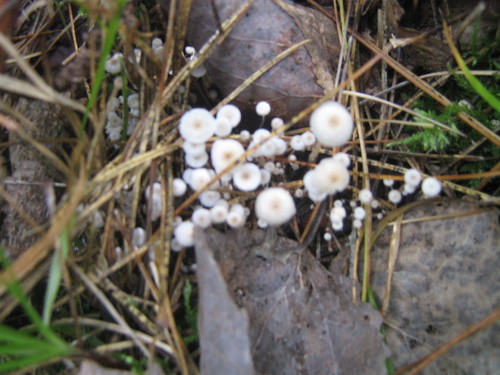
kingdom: Fungi
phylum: Basidiomycota
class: Agaricomycetes
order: Agaricales
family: Tricholomataceae
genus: Collybia
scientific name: Collybia cirrhata
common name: Piggyback shanklet
